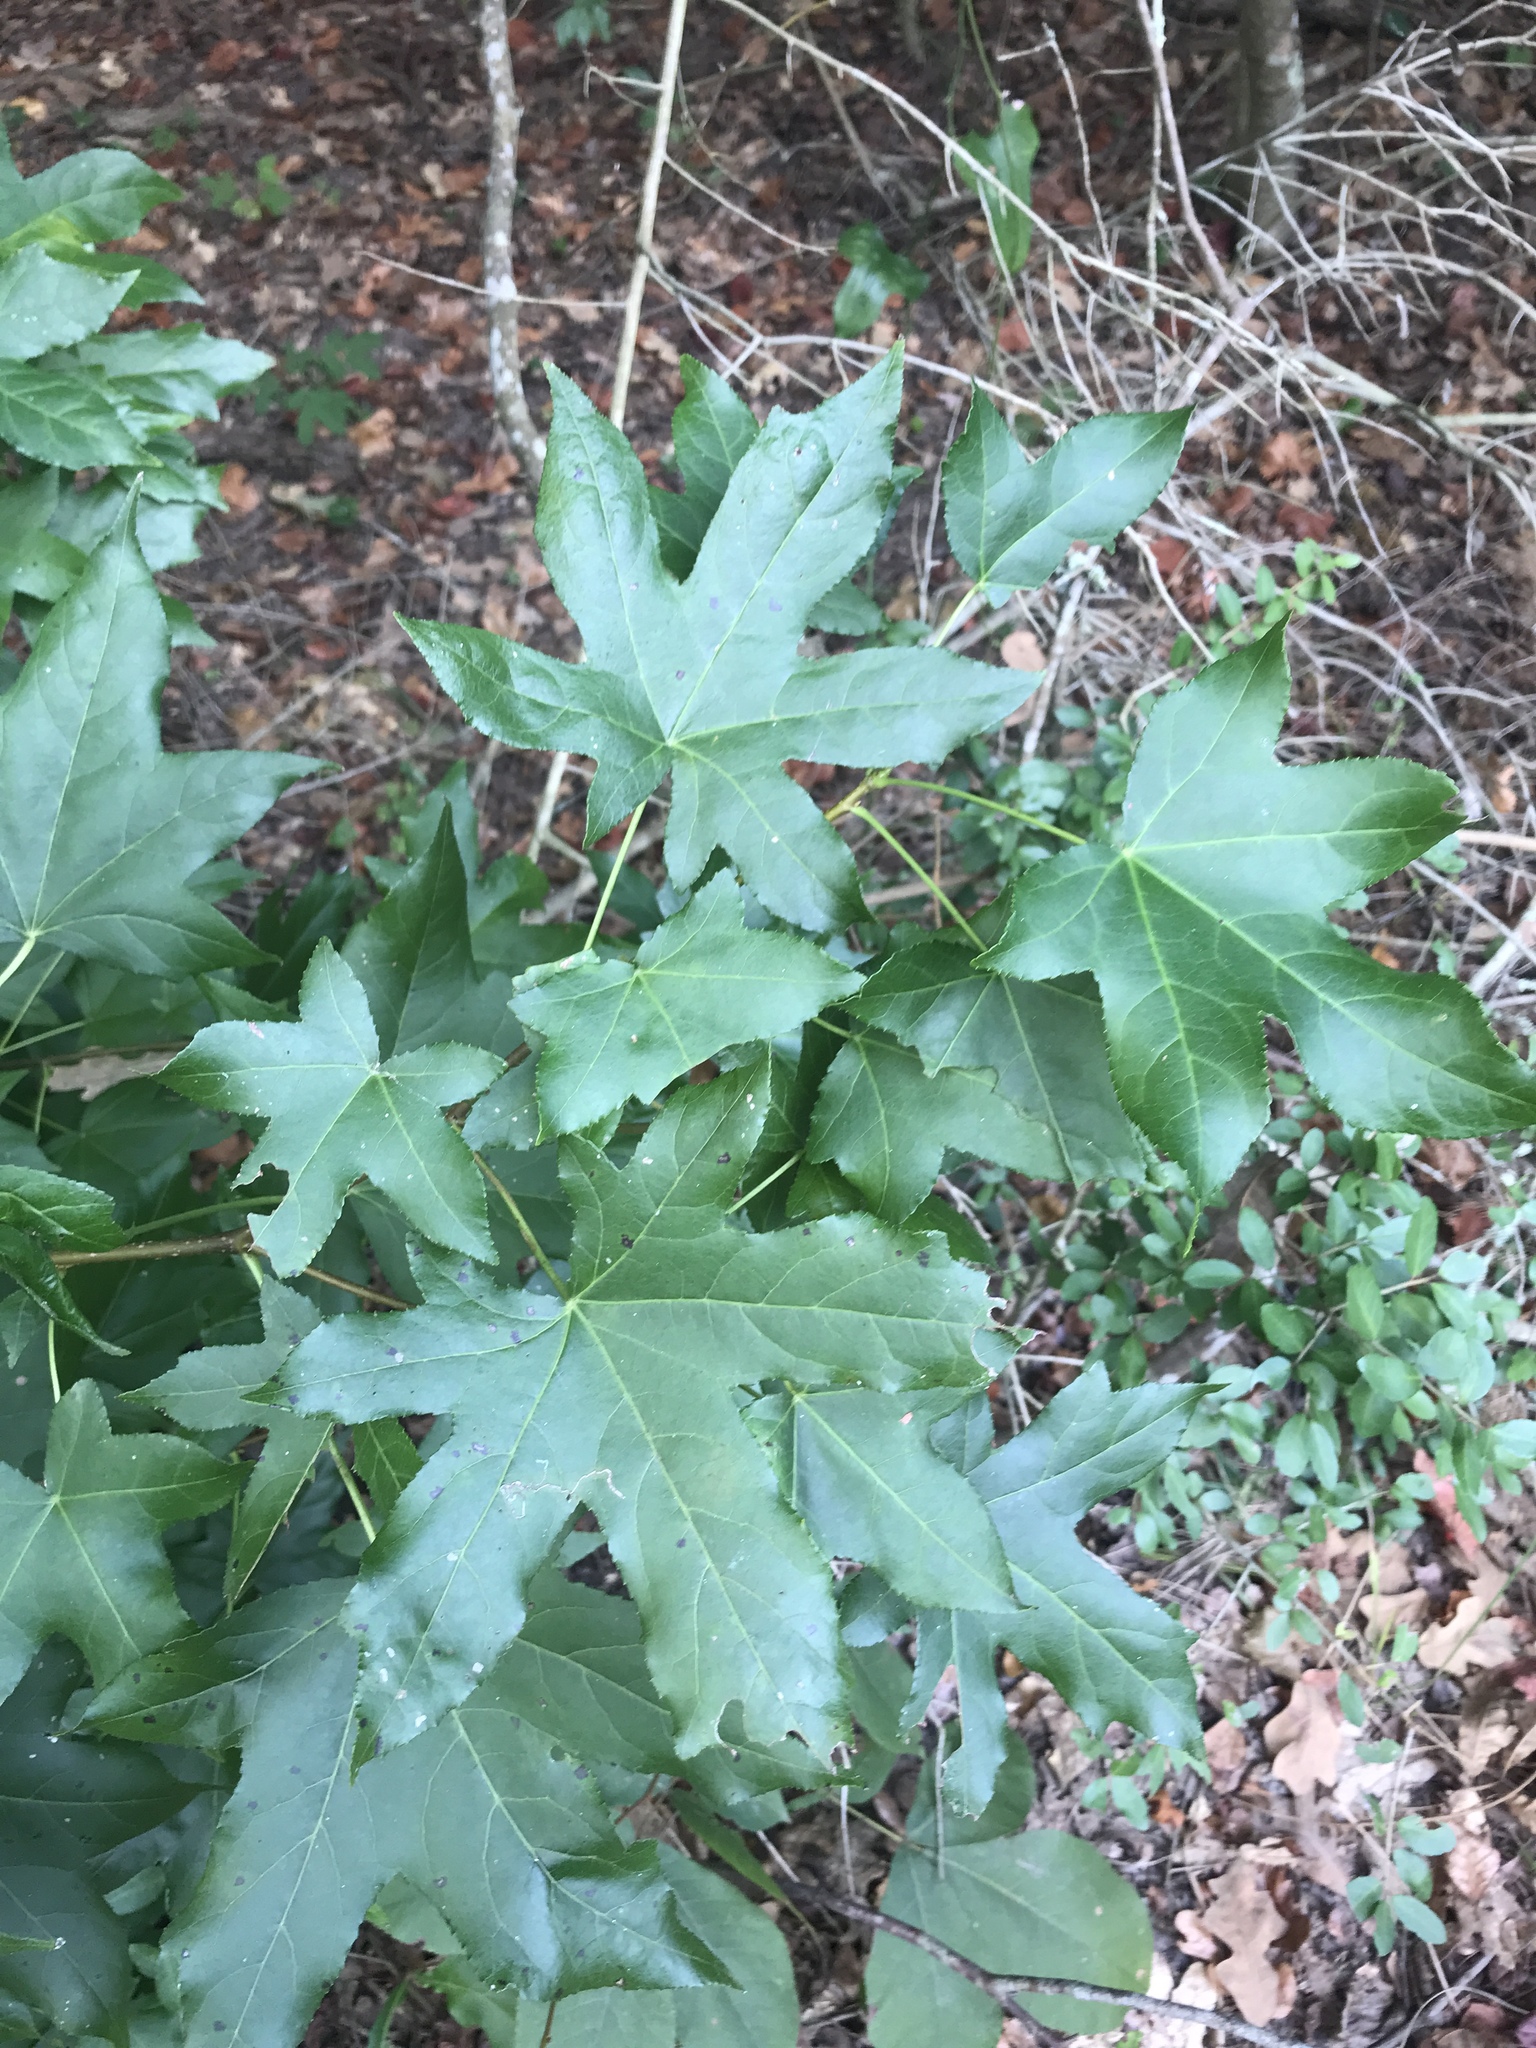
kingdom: Plantae
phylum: Tracheophyta
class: Magnoliopsida
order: Saxifragales
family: Altingiaceae
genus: Liquidambar
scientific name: Liquidambar styraciflua
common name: Sweet gum
